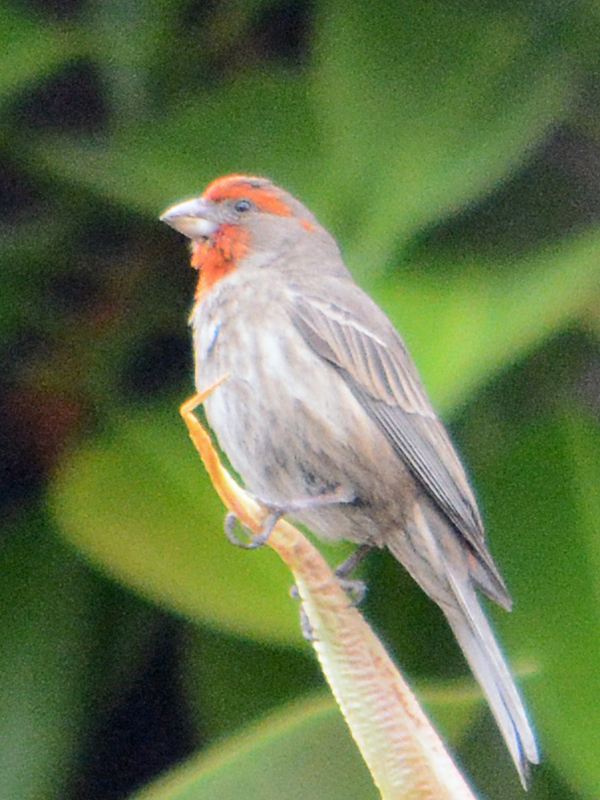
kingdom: Animalia
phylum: Chordata
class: Aves
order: Passeriformes
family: Fringillidae
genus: Haemorhous
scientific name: Haemorhous mexicanus
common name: House finch
